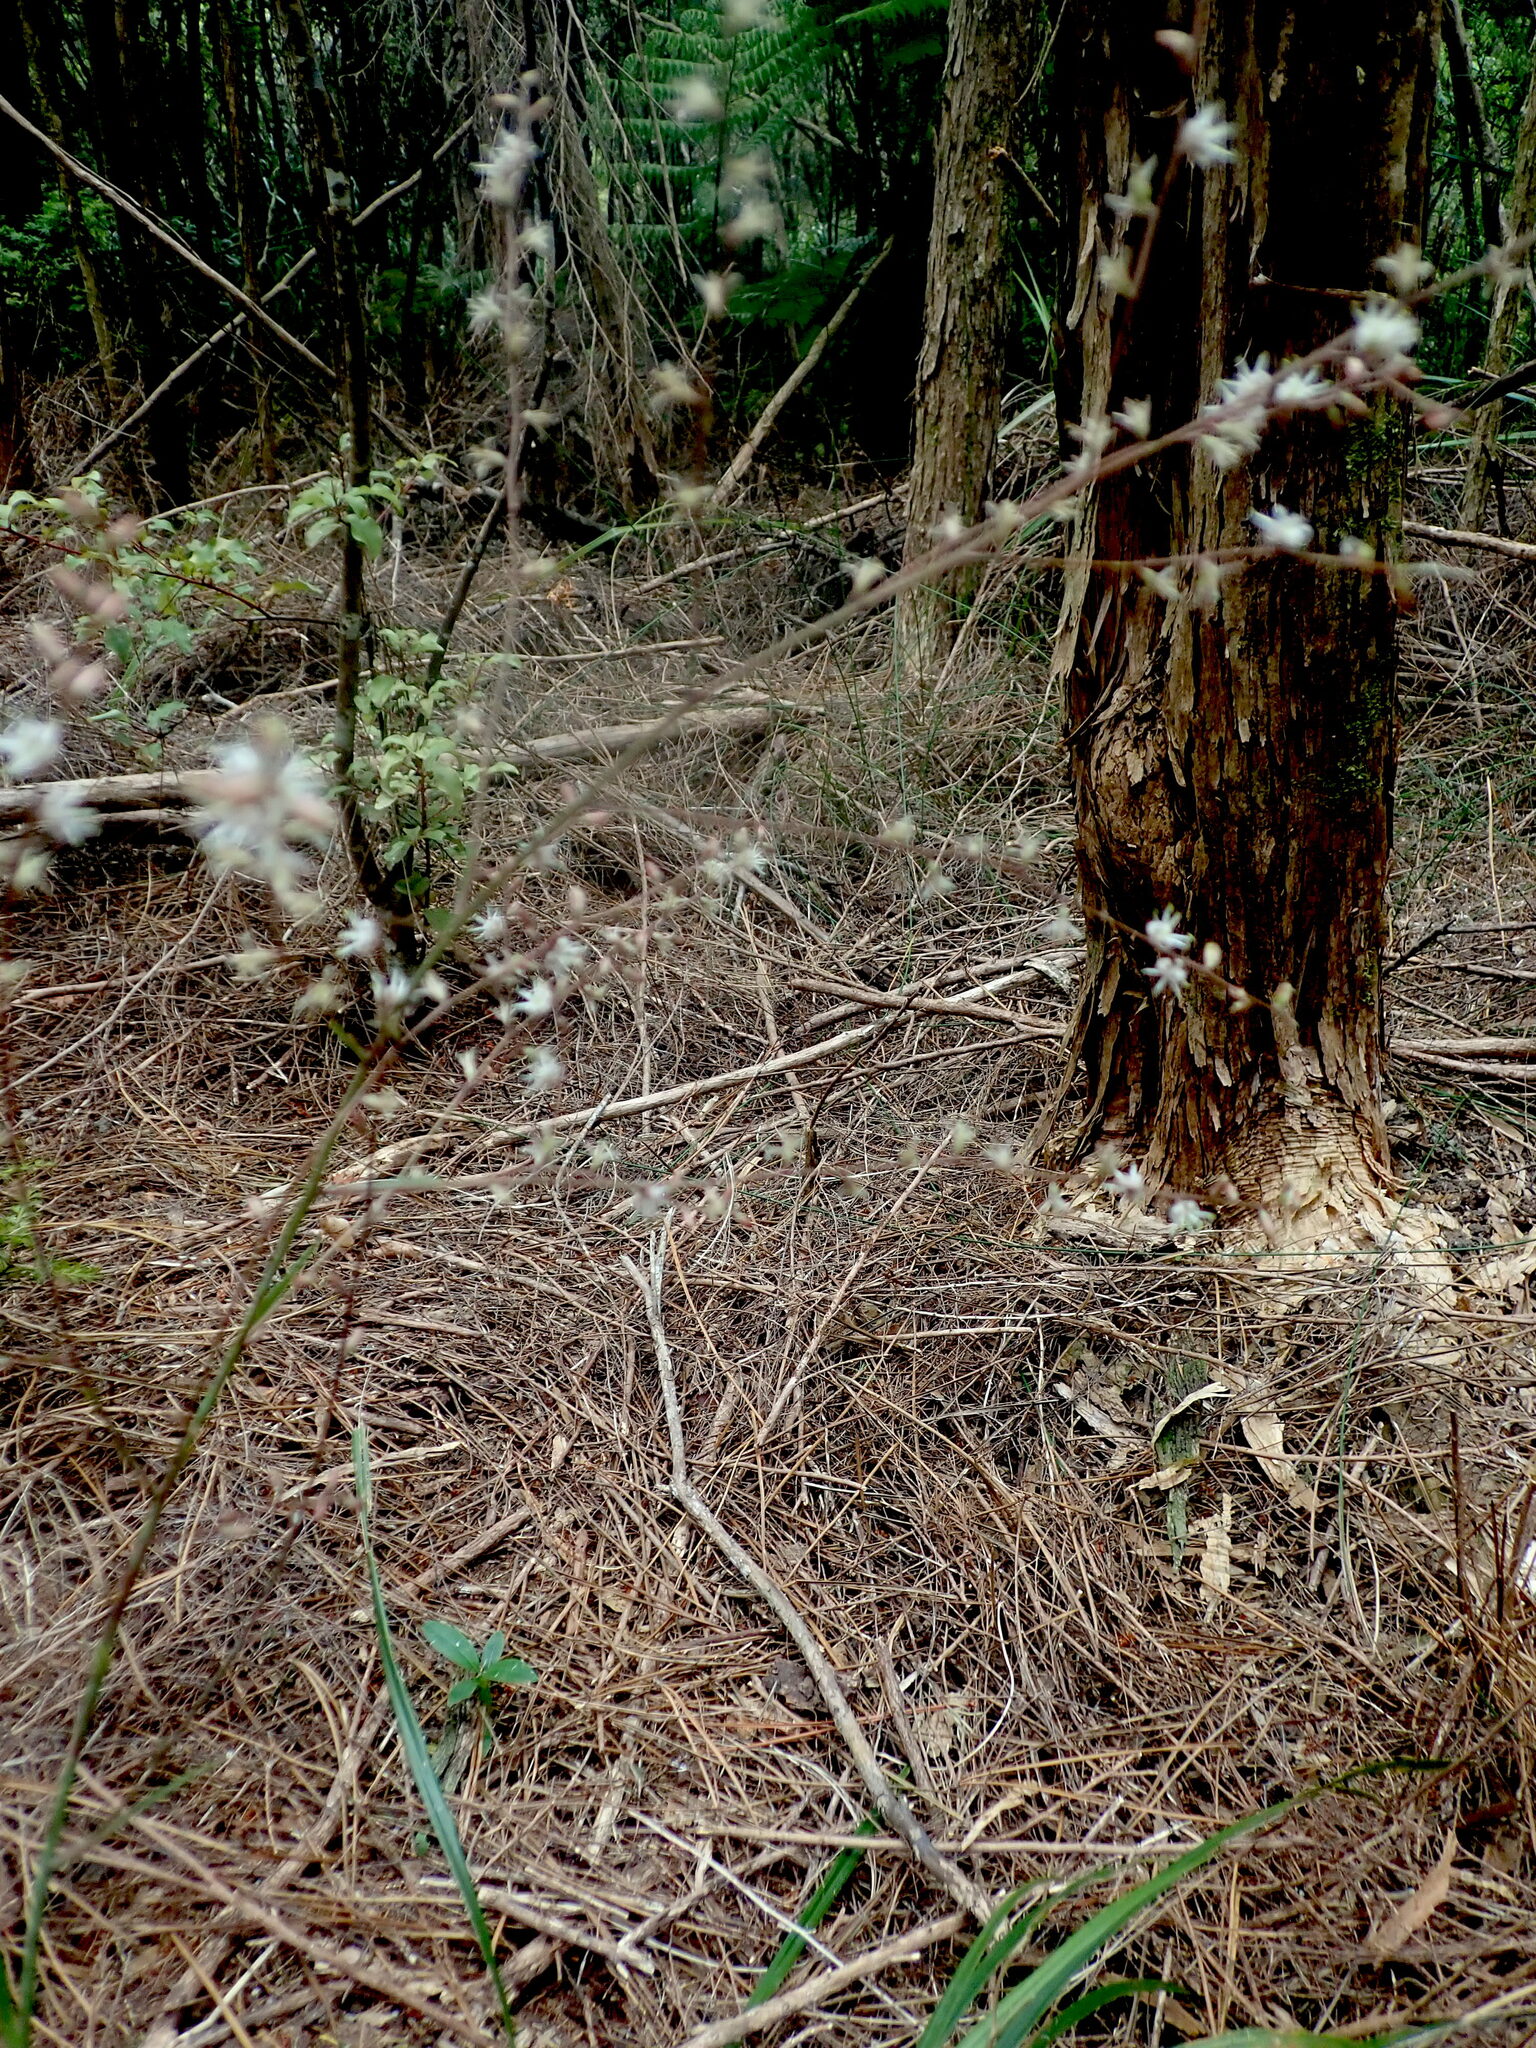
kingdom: Plantae
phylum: Tracheophyta
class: Liliopsida
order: Asparagales
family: Asparagaceae
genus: Cordyline
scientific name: Cordyline pumilio
